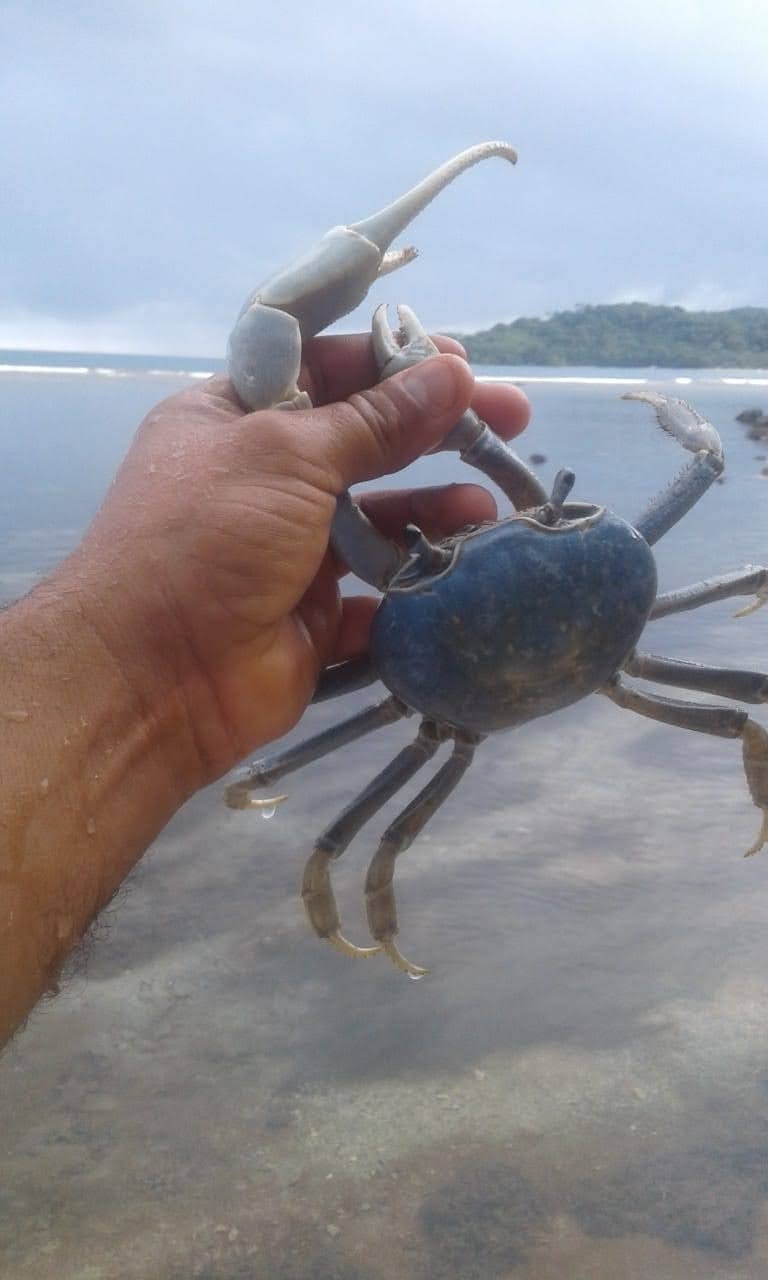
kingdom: Animalia
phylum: Arthropoda
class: Malacostraca
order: Decapoda
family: Gecarcinidae
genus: Cardisoma
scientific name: Cardisoma guanhumi
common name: Great land crab
